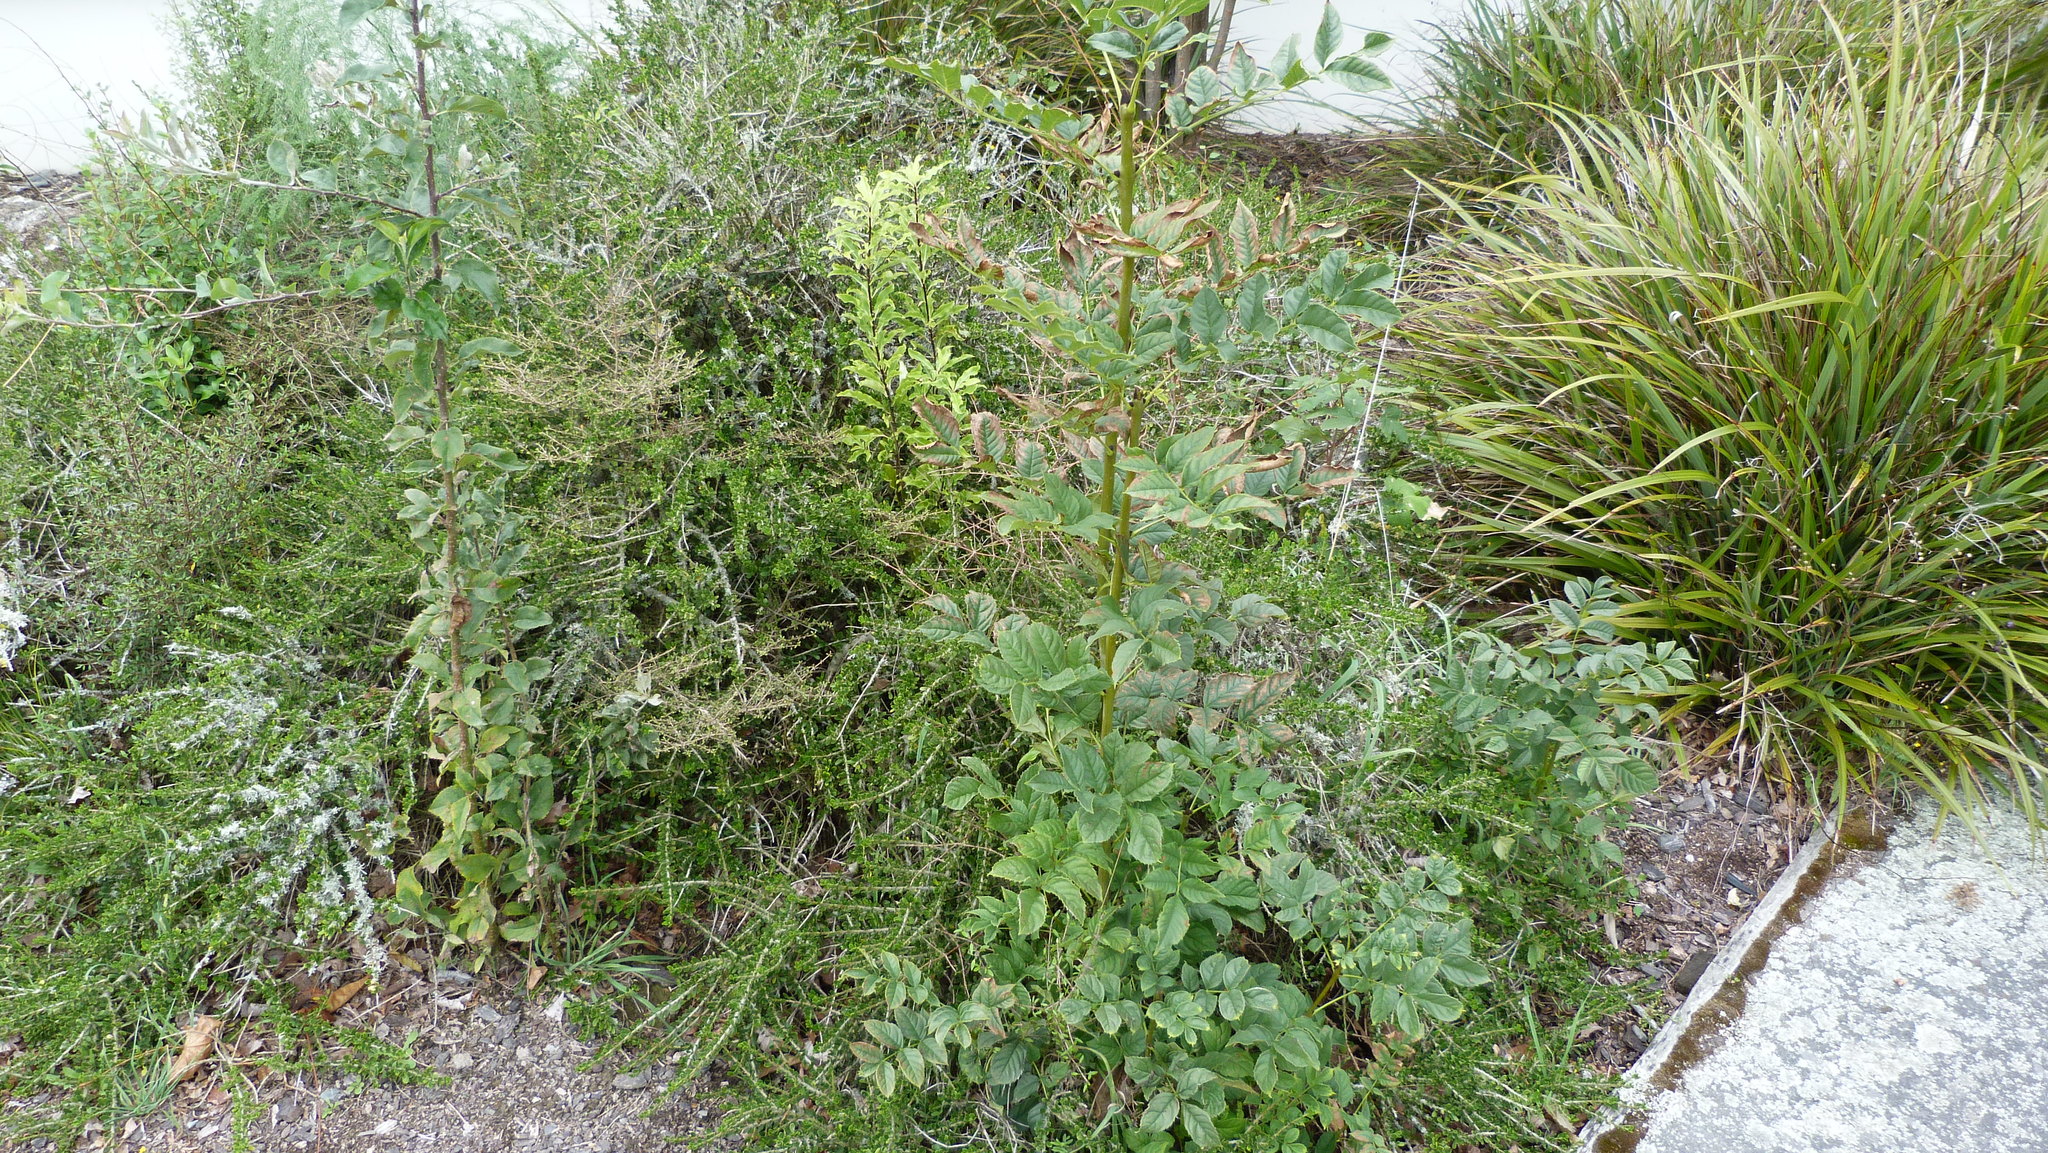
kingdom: Plantae
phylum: Tracheophyta
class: Magnoliopsida
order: Lamiales
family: Oleaceae
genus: Fraxinus
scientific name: Fraxinus excelsior
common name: European ash
